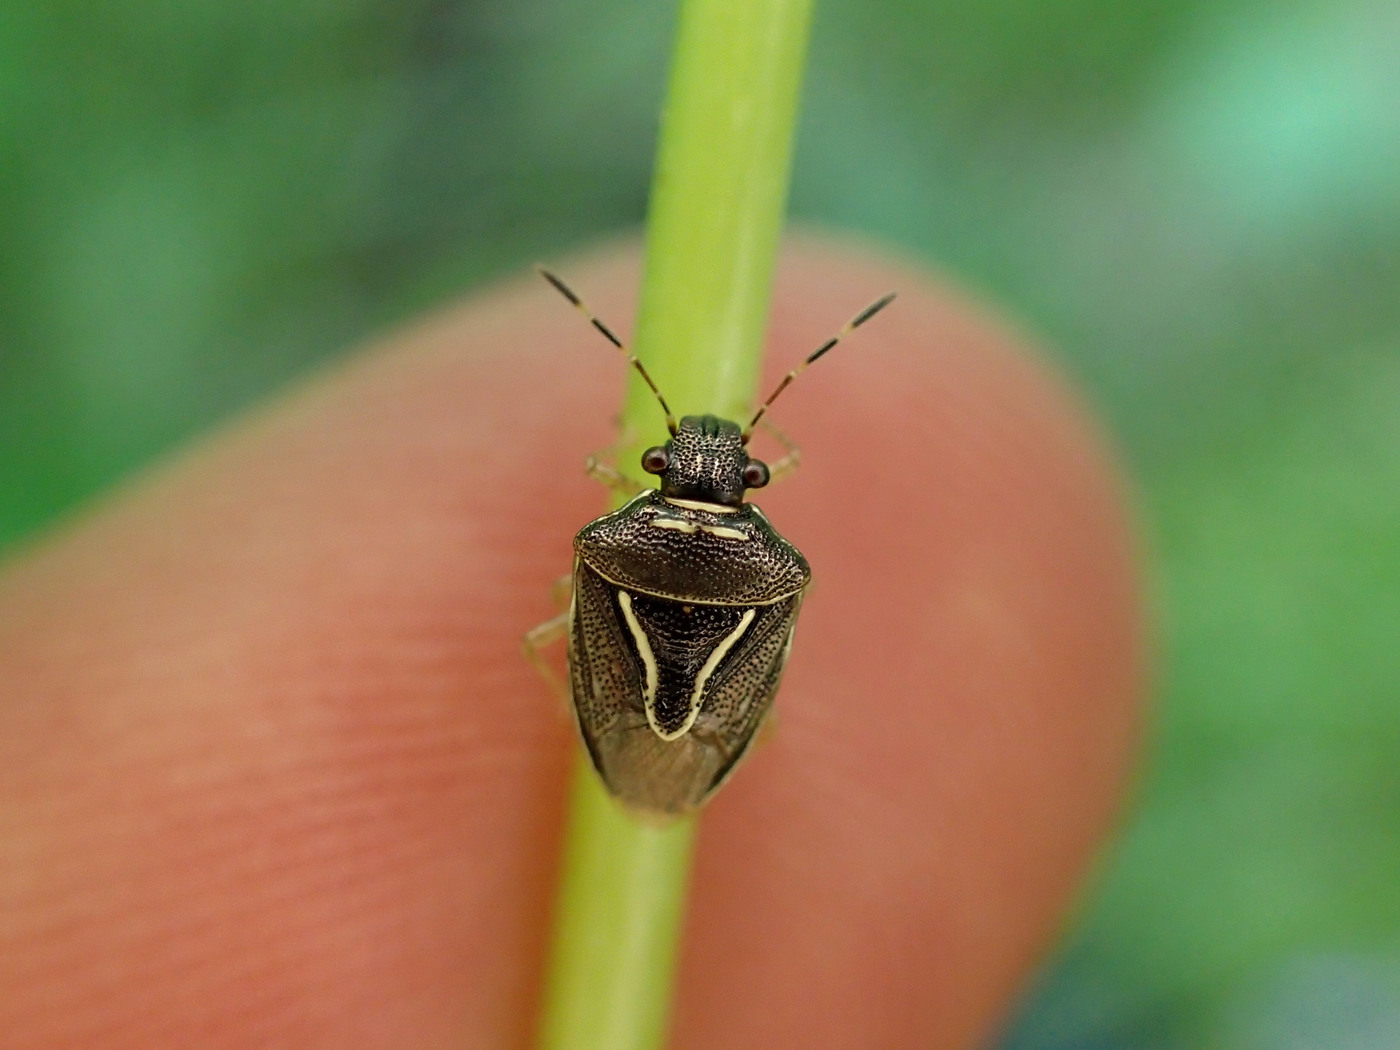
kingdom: Animalia
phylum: Arthropoda
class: Insecta
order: Hemiptera
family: Pentatomidae
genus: Mormidea
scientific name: Mormidea lugens
